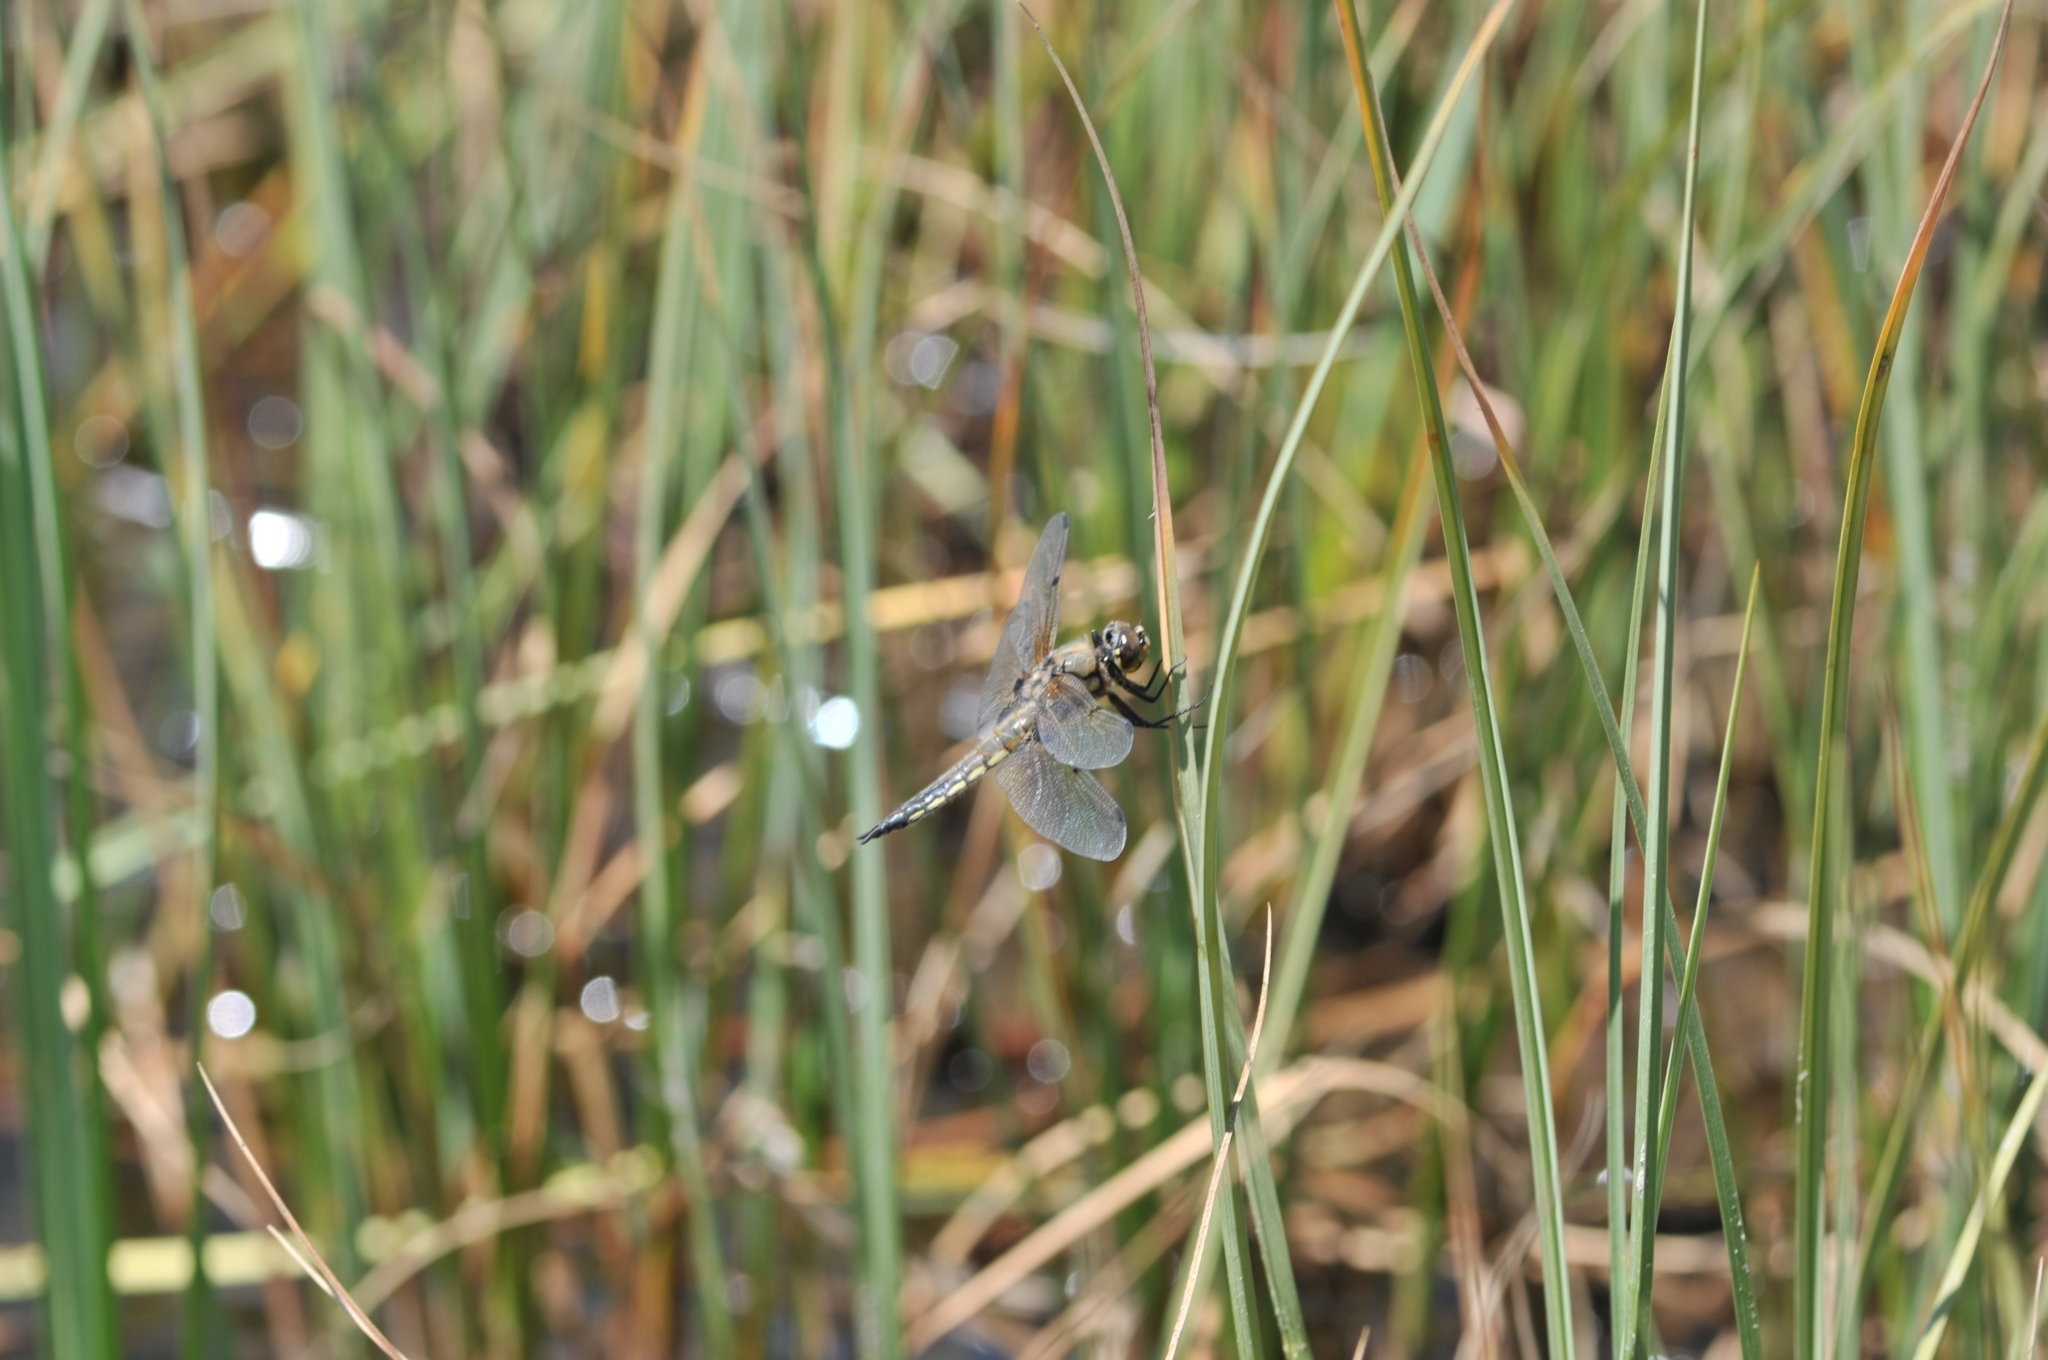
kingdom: Animalia
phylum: Arthropoda
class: Insecta
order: Odonata
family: Libellulidae
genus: Libellula
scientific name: Libellula quadrimaculata
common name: Four-spotted chaser
